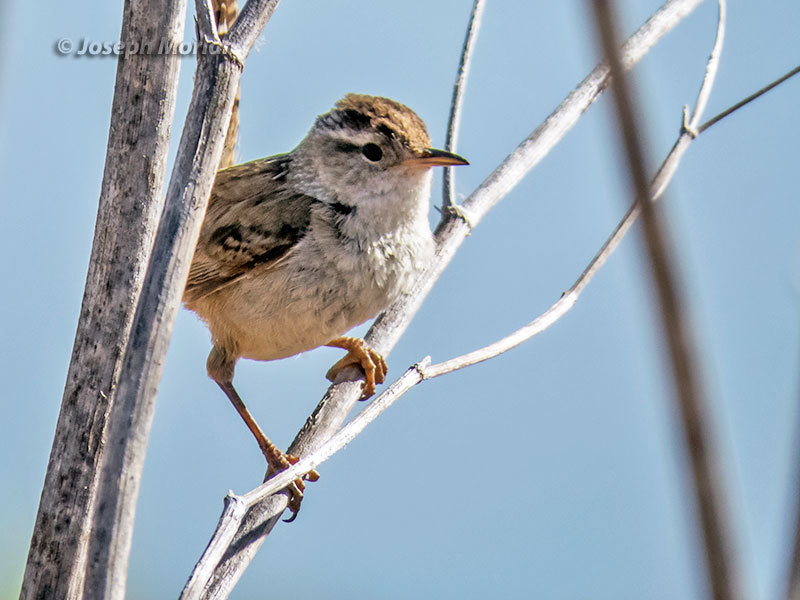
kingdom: Animalia
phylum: Chordata
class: Aves
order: Passeriformes
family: Troglodytidae
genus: Cistothorus
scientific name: Cistothorus palustris
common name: Marsh wren
